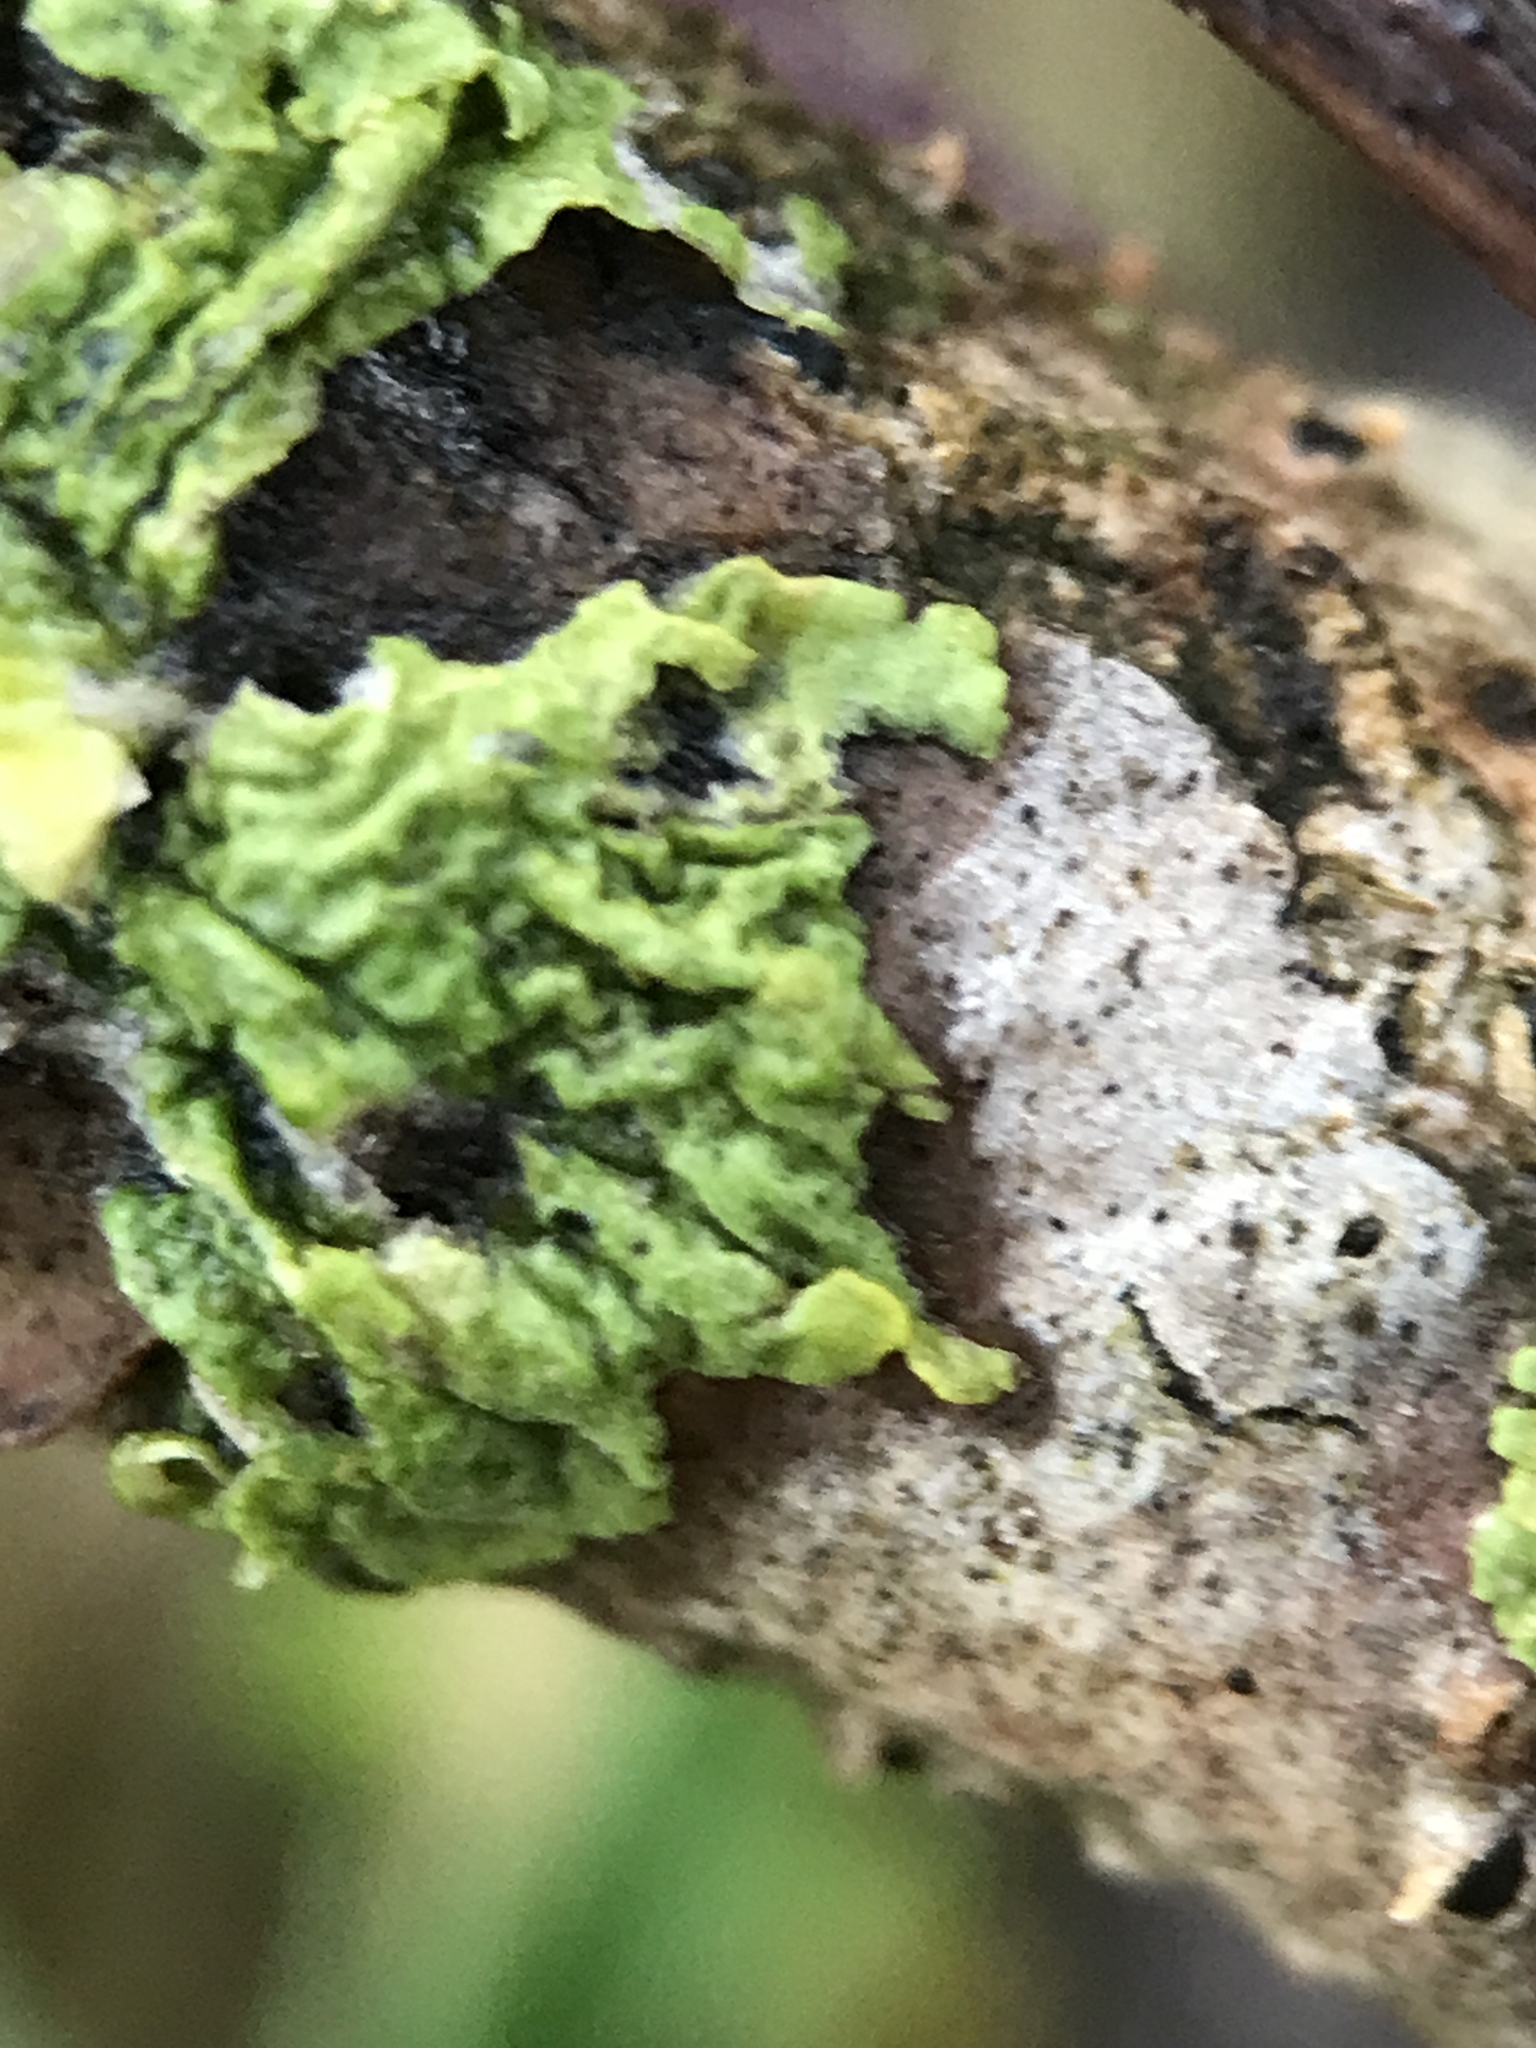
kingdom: Fungi
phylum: Ascomycota
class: Lecanoromycetes
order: Teloschistales
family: Teloschistaceae
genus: Xanthoria
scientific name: Xanthoria parietina
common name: Common orange lichen
